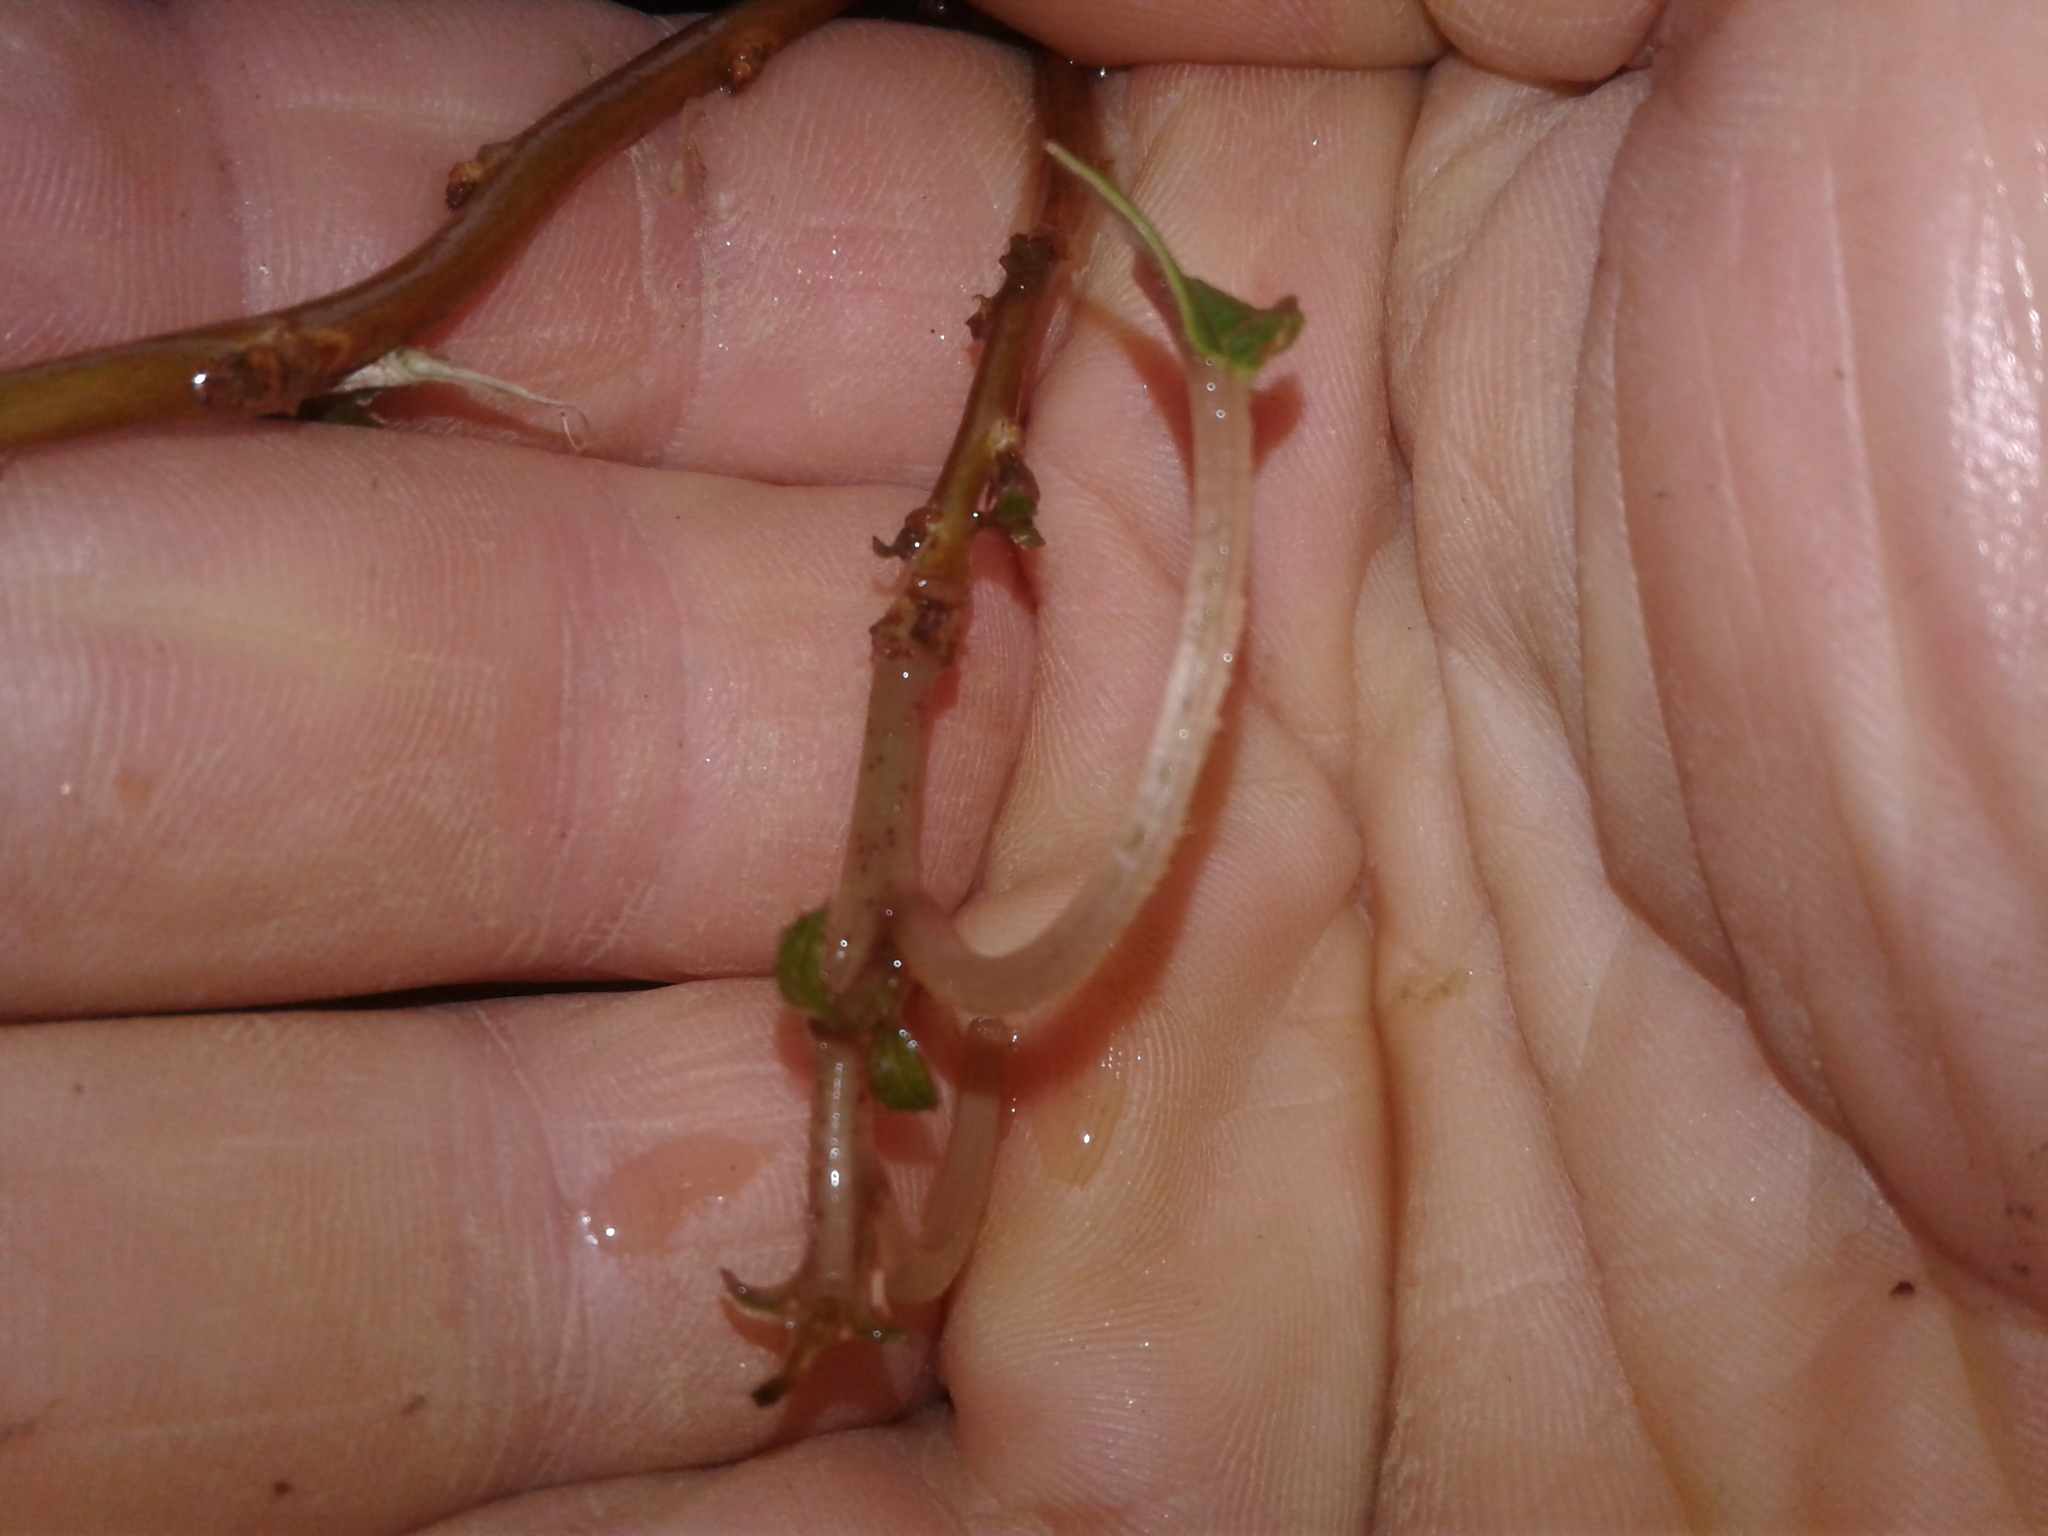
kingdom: Animalia
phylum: Chordata
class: Mammalia
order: Diprotodontia
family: Phalangeridae
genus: Trichosurus
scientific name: Trichosurus vulpecula
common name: Common brushtail
